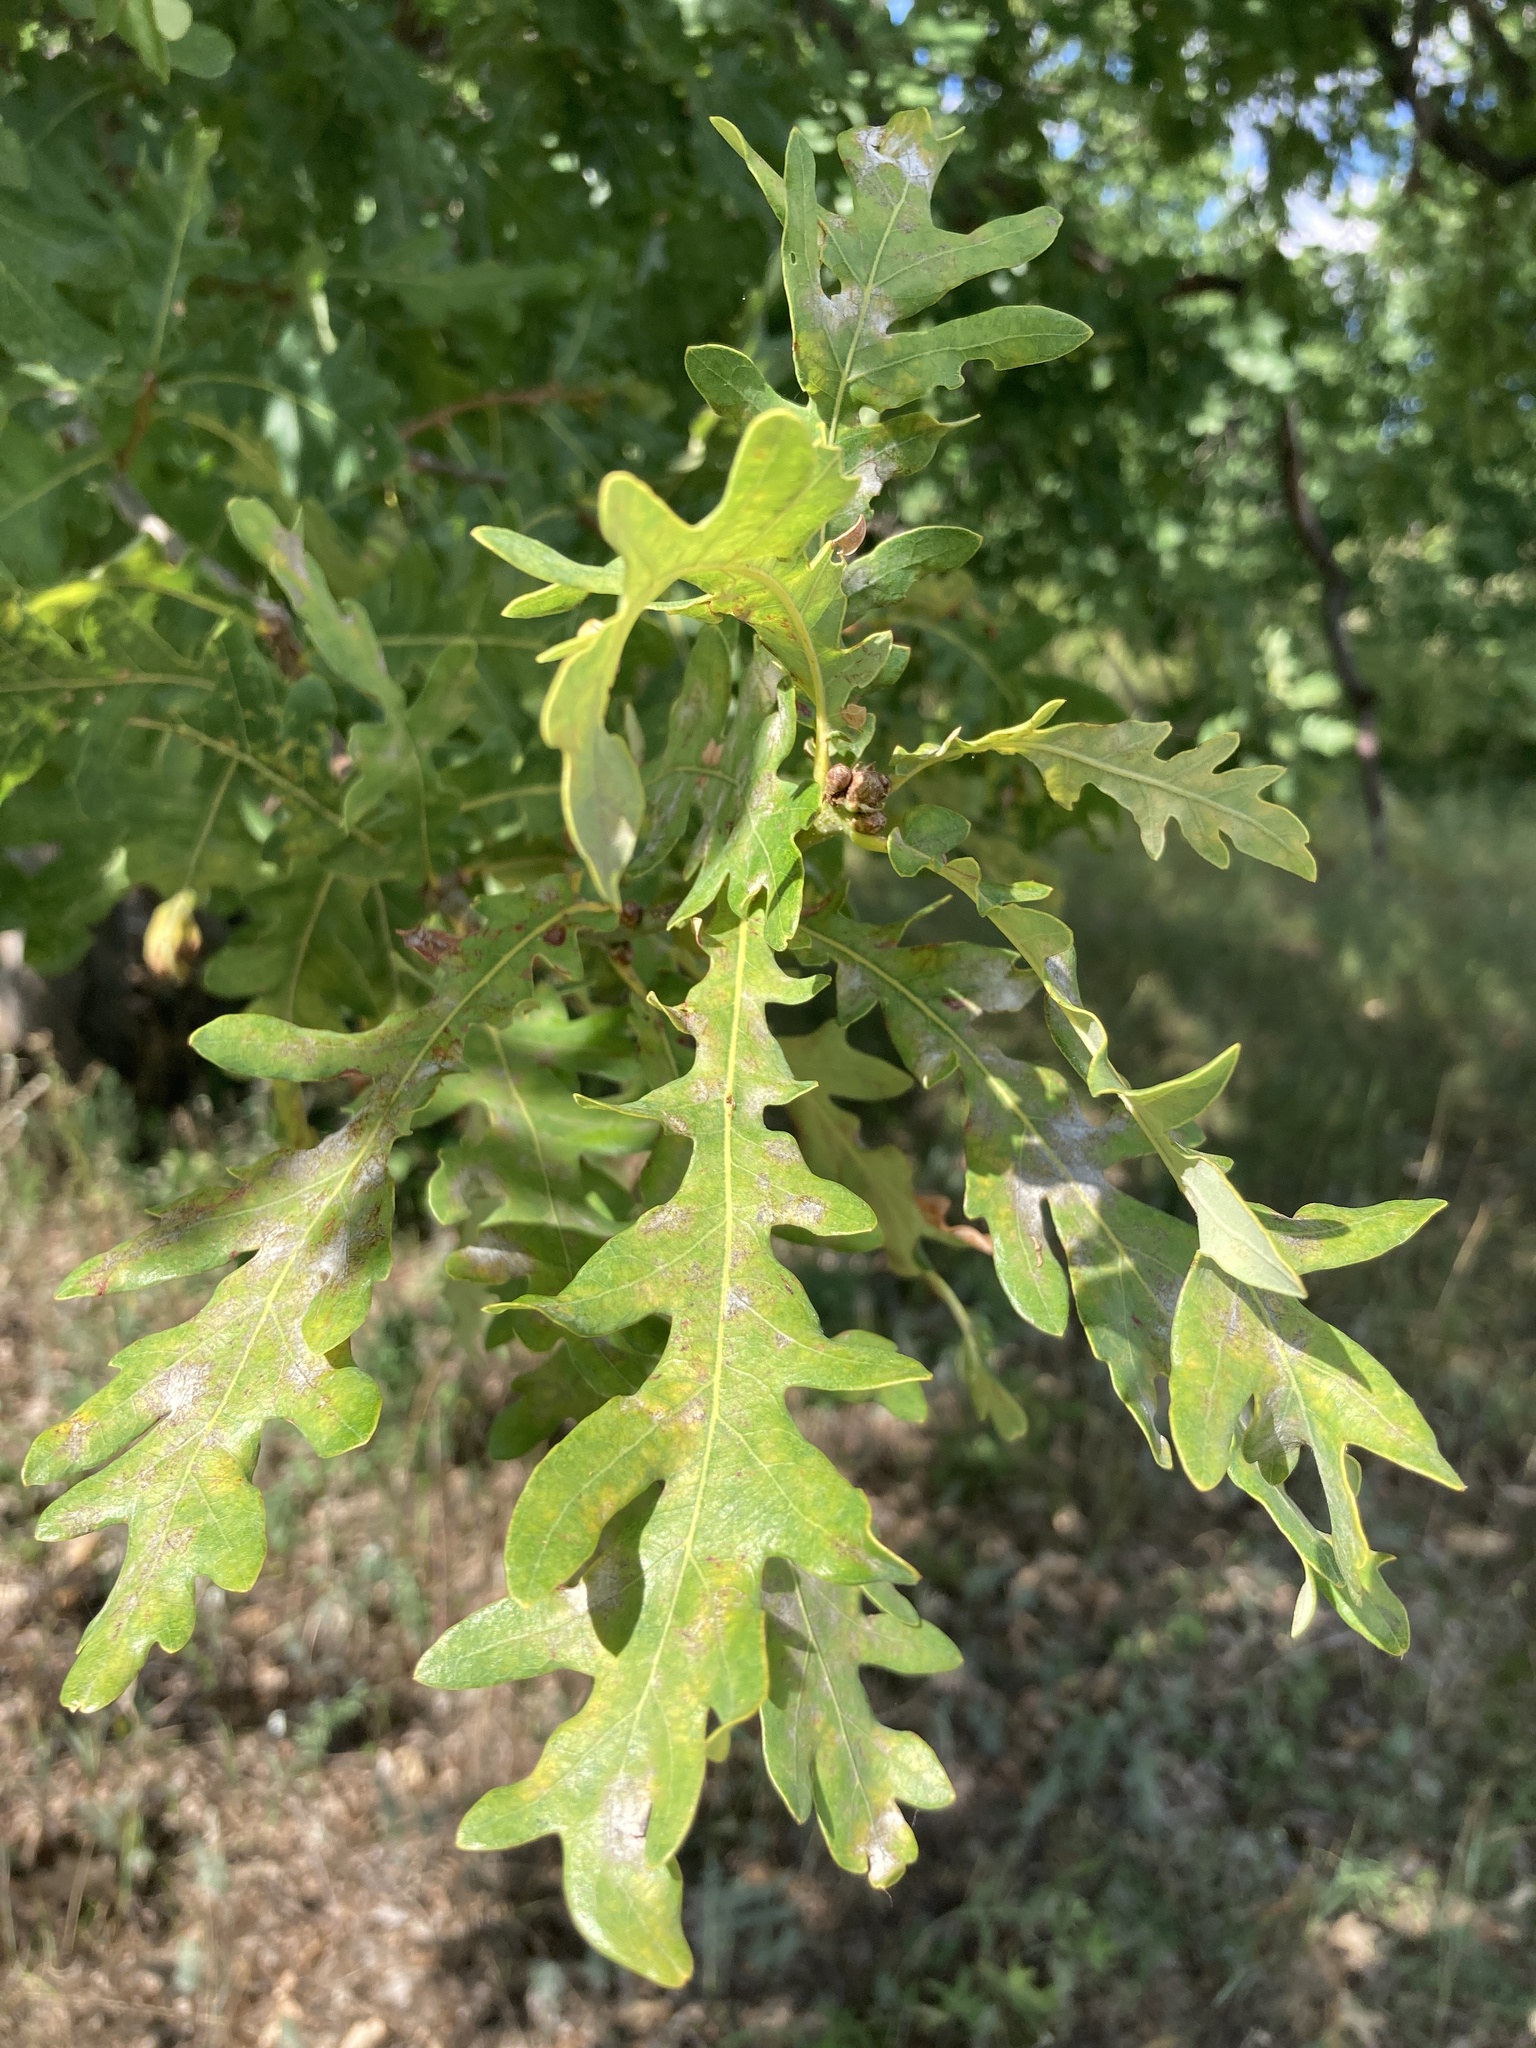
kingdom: Plantae
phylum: Tracheophyta
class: Magnoliopsida
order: Fagales
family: Fagaceae
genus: Quercus
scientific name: Quercus robur
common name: Pedunculate oak
